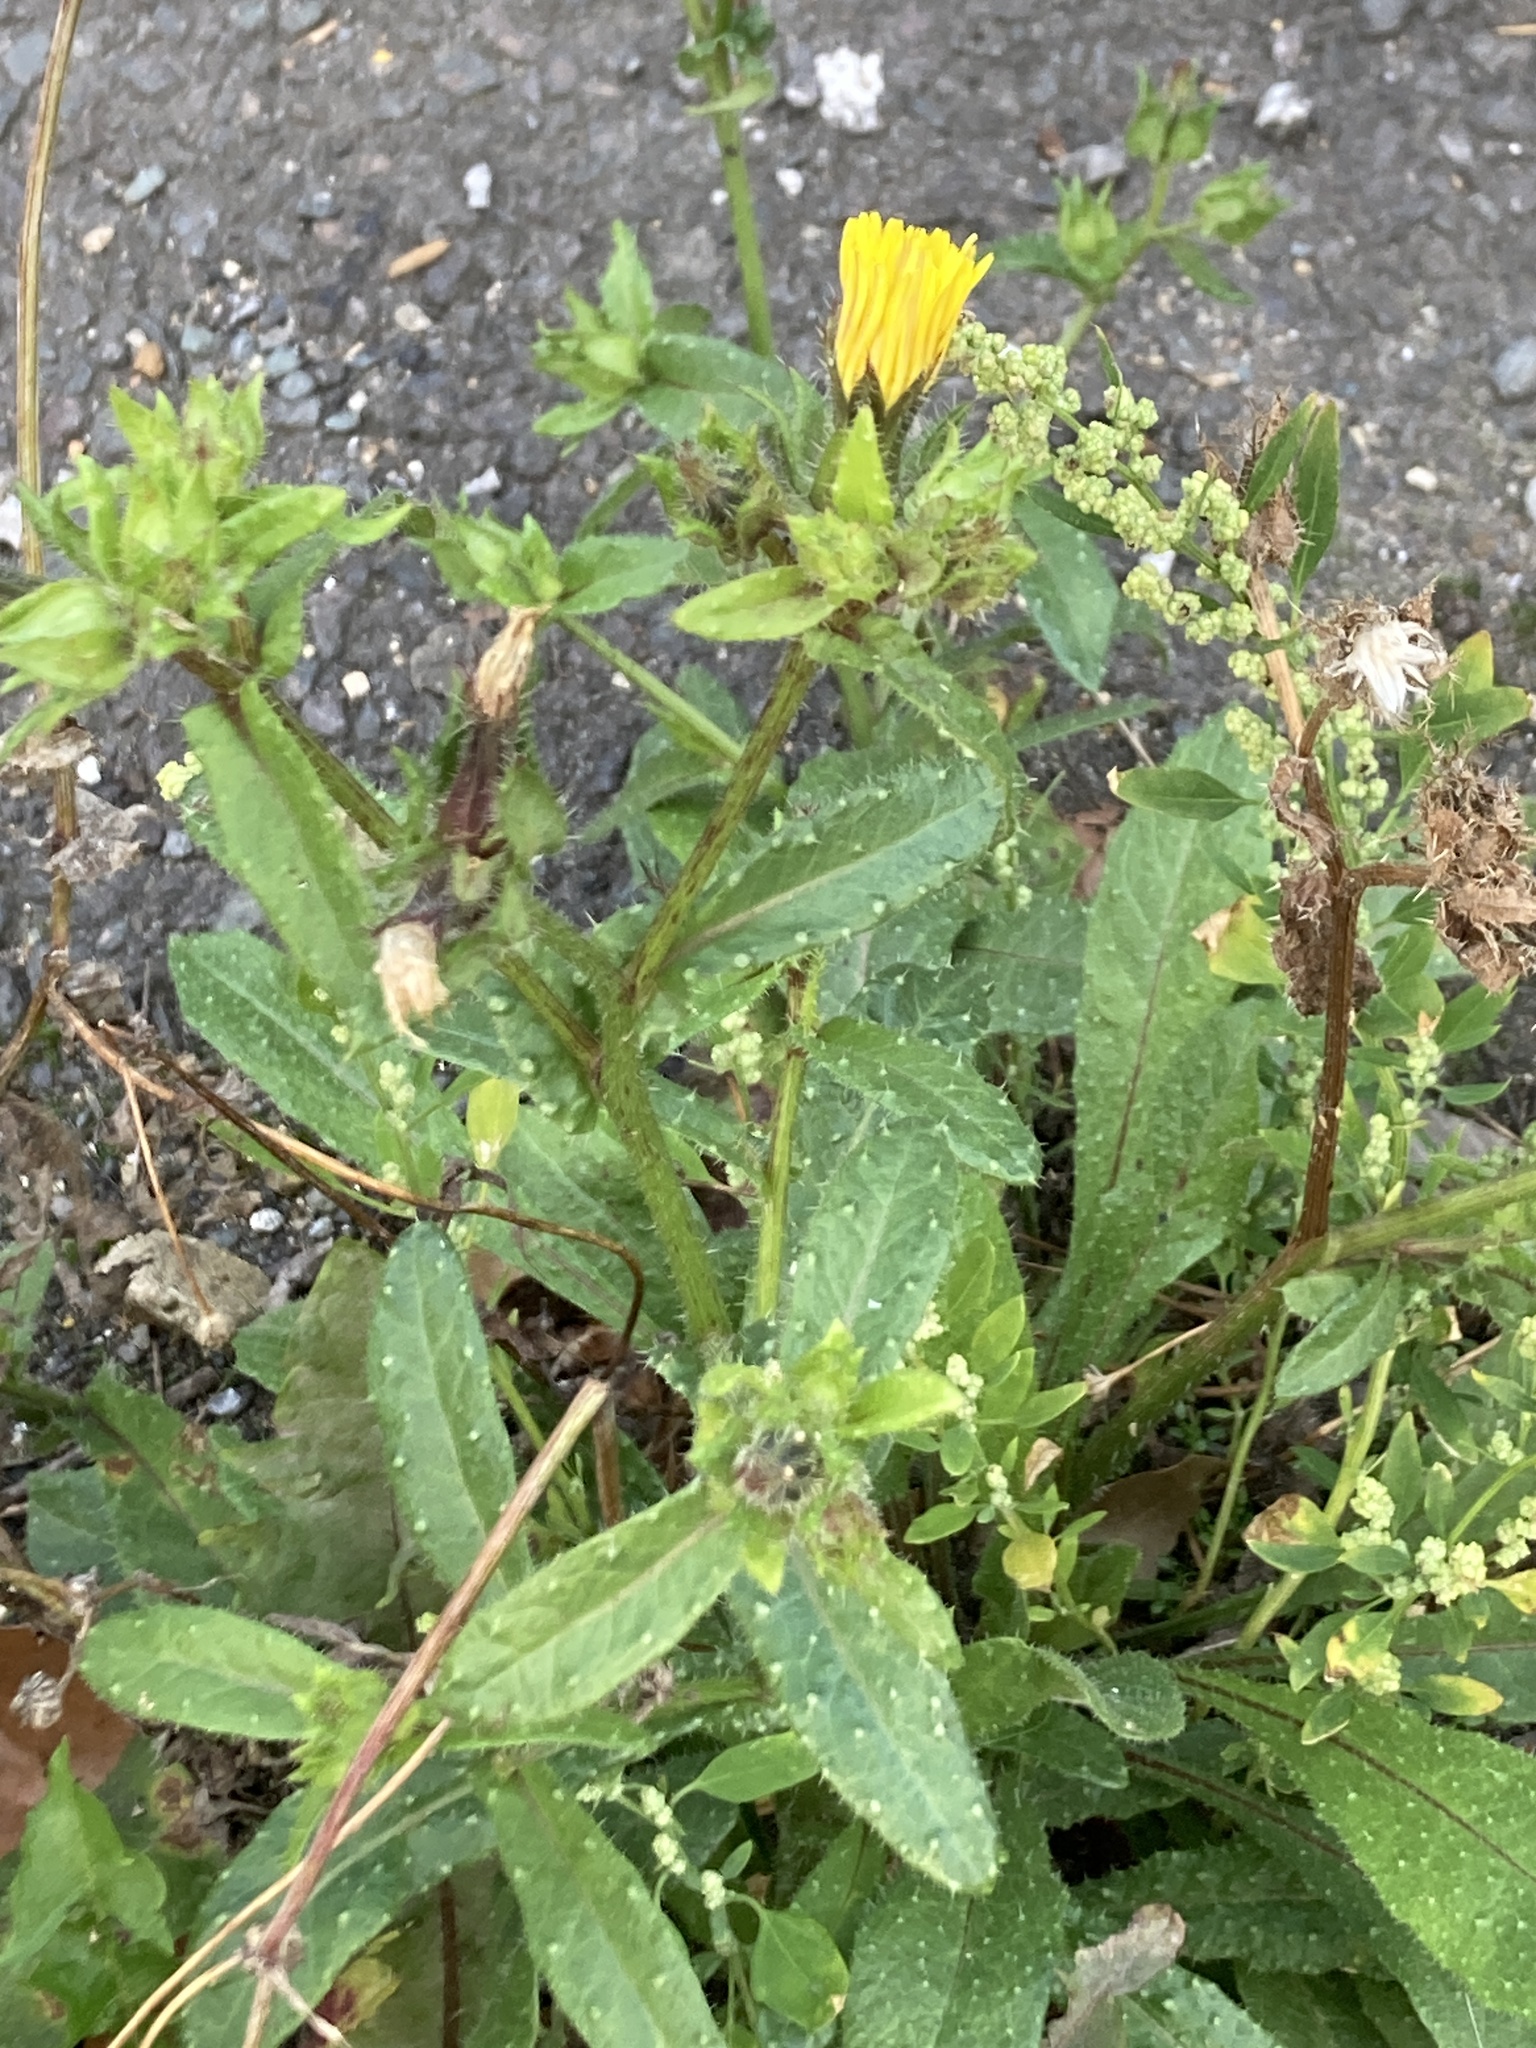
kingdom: Plantae
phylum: Tracheophyta
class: Magnoliopsida
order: Asterales
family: Asteraceae
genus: Helminthotheca
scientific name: Helminthotheca echioides
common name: Ox-tongue
